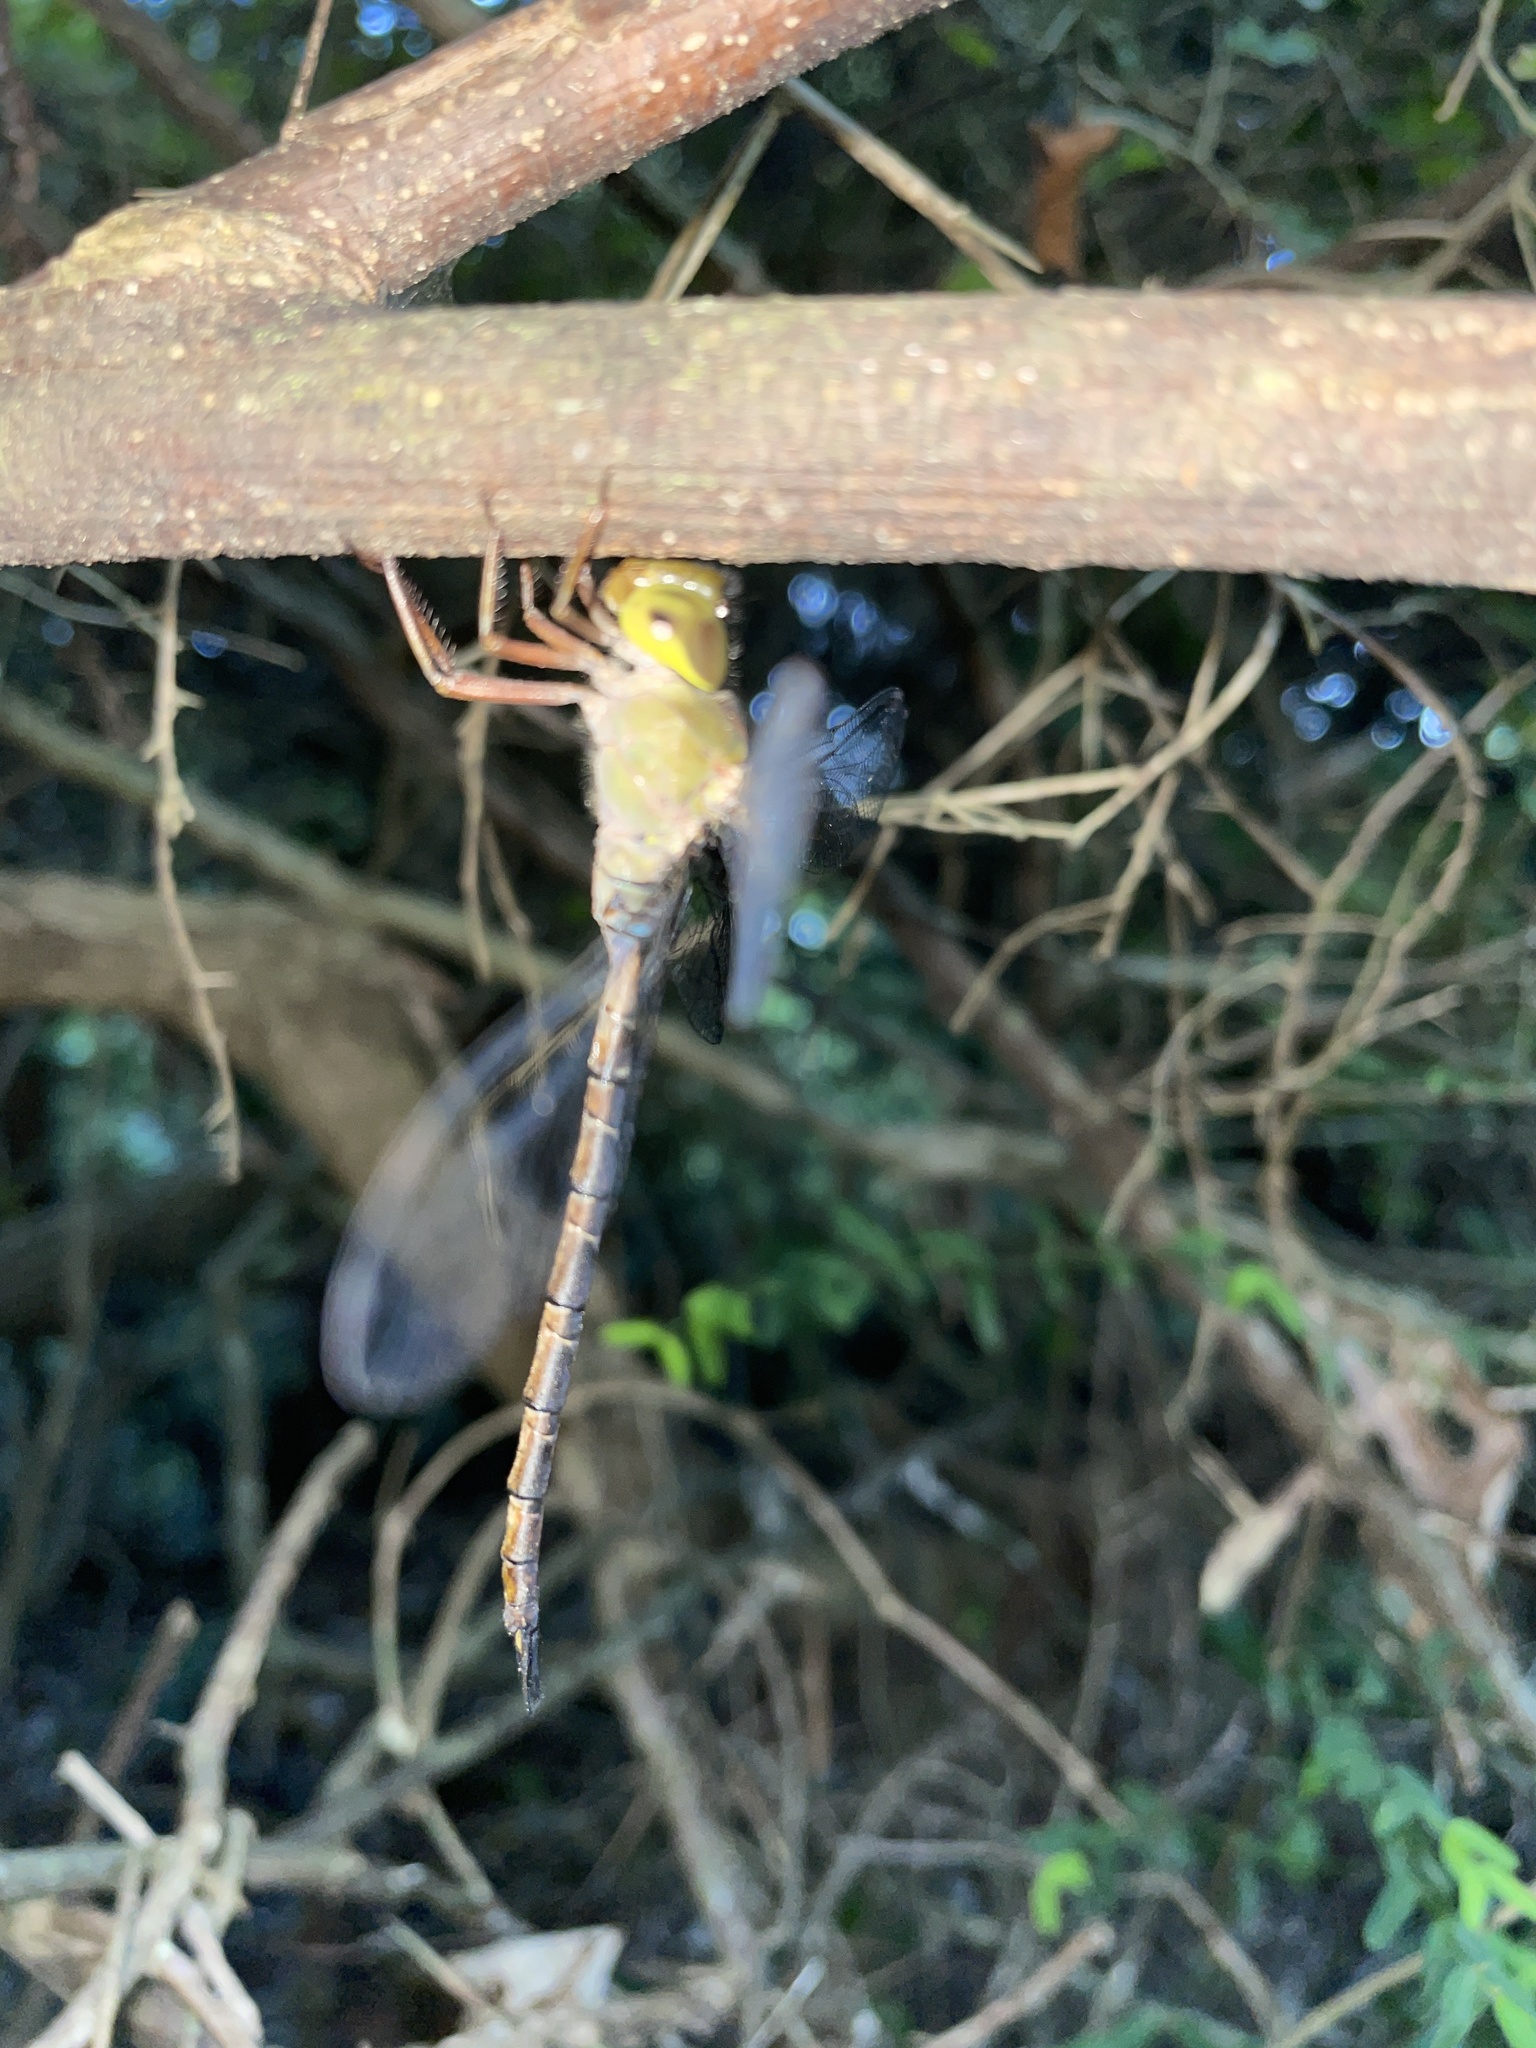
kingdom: Animalia
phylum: Arthropoda
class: Insecta
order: Odonata
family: Aeshnidae
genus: Gynacantha
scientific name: Gynacantha usambarica
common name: Eastern duskhawker
